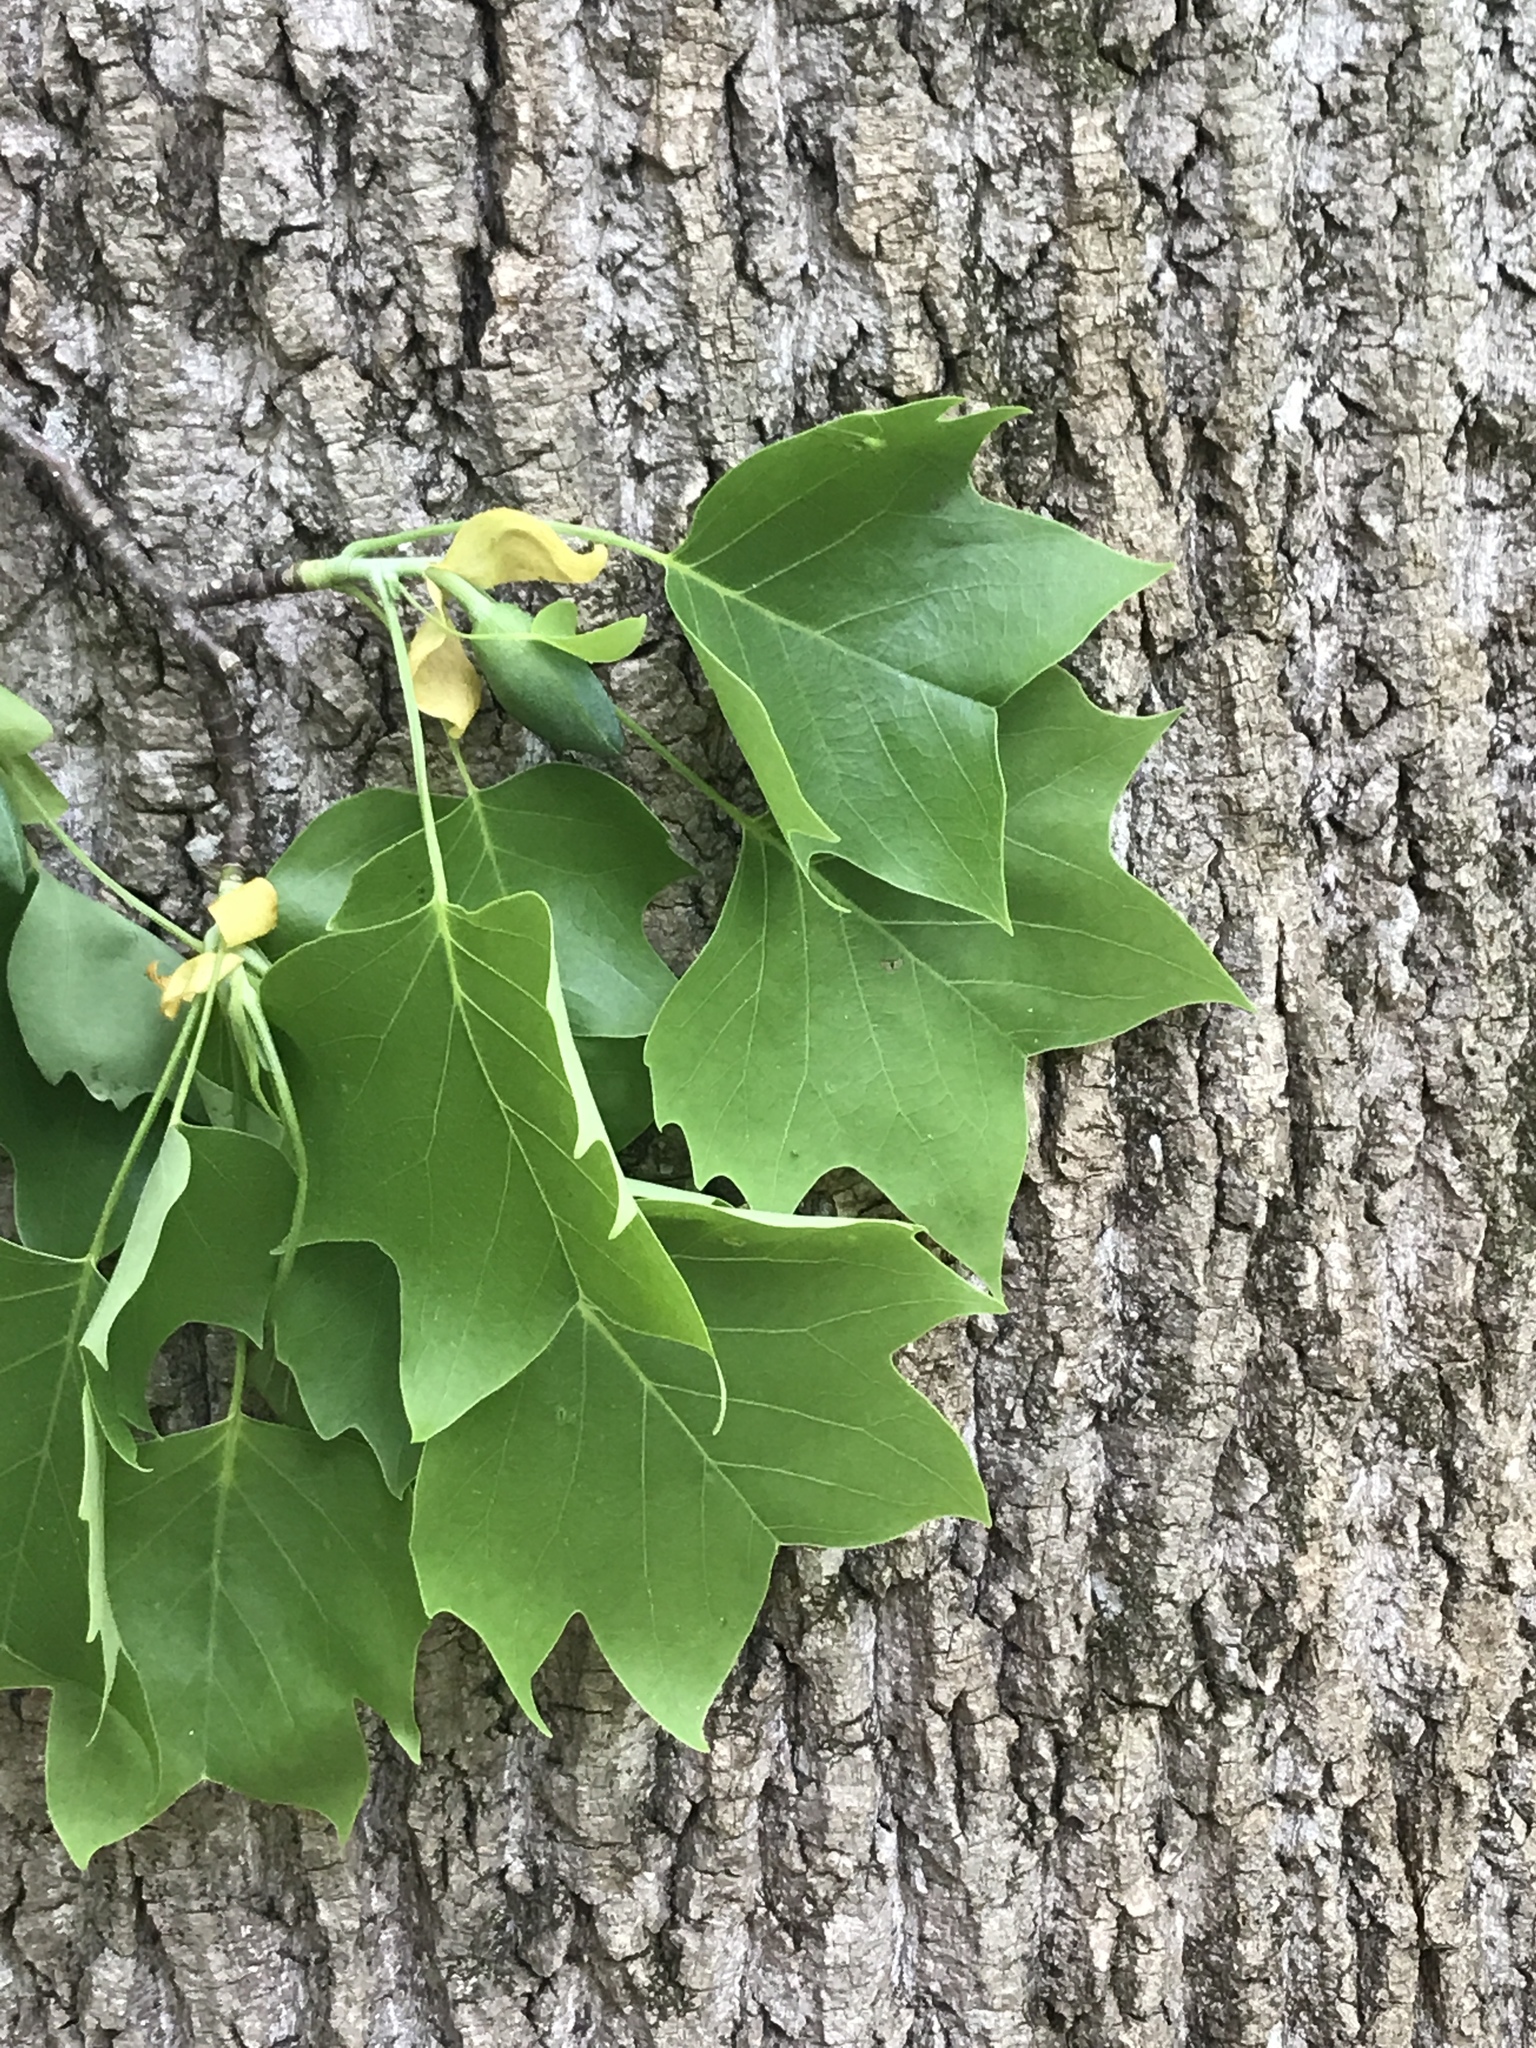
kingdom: Plantae
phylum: Tracheophyta
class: Magnoliopsida
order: Magnoliales
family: Magnoliaceae
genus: Liriodendron
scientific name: Liriodendron tulipifera
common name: Tulip tree
